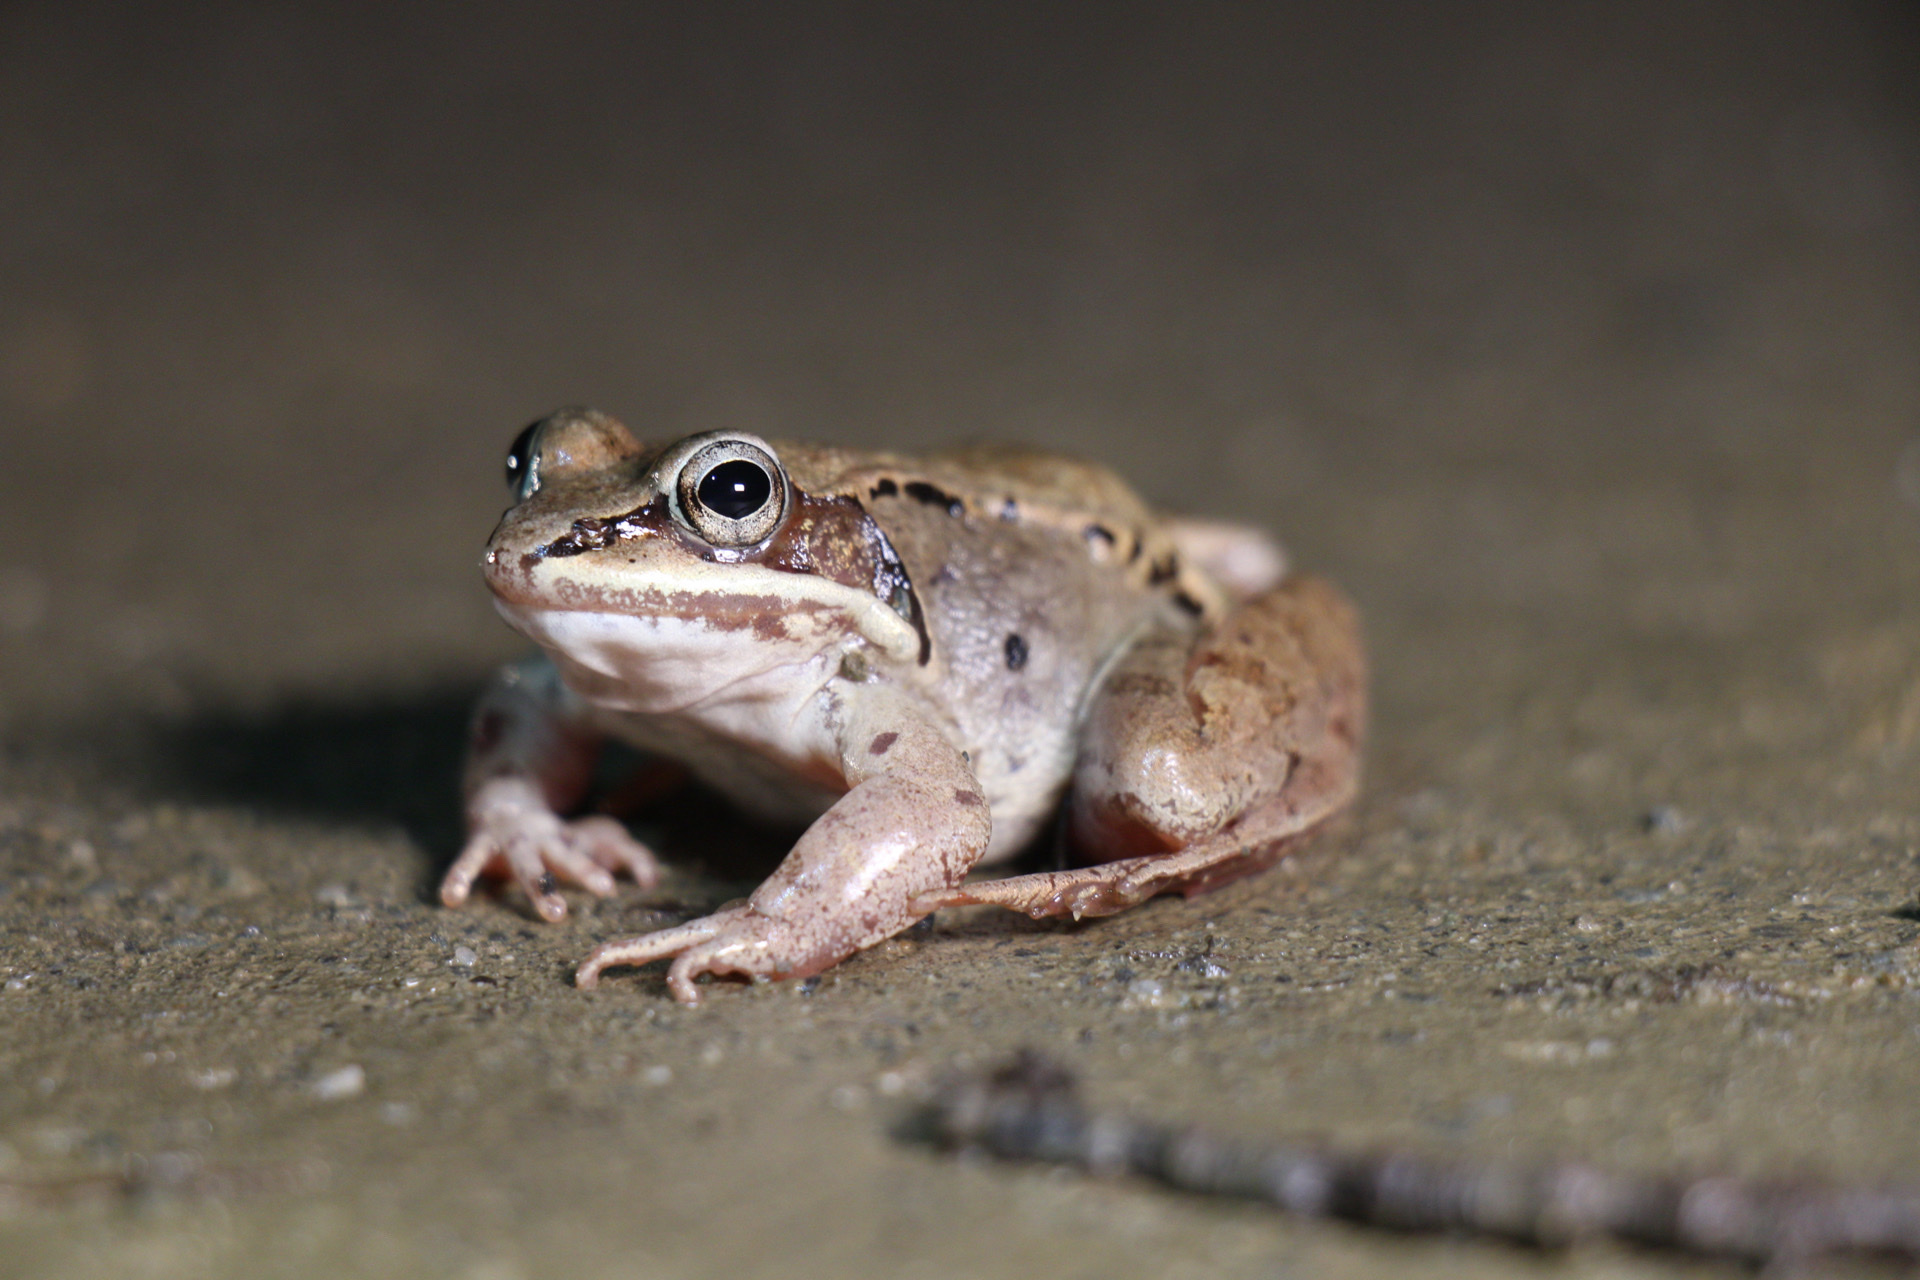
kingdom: Animalia
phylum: Chordata
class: Amphibia
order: Anura
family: Ranidae
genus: Lithobates
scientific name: Lithobates sylvaticus
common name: Wood frog
